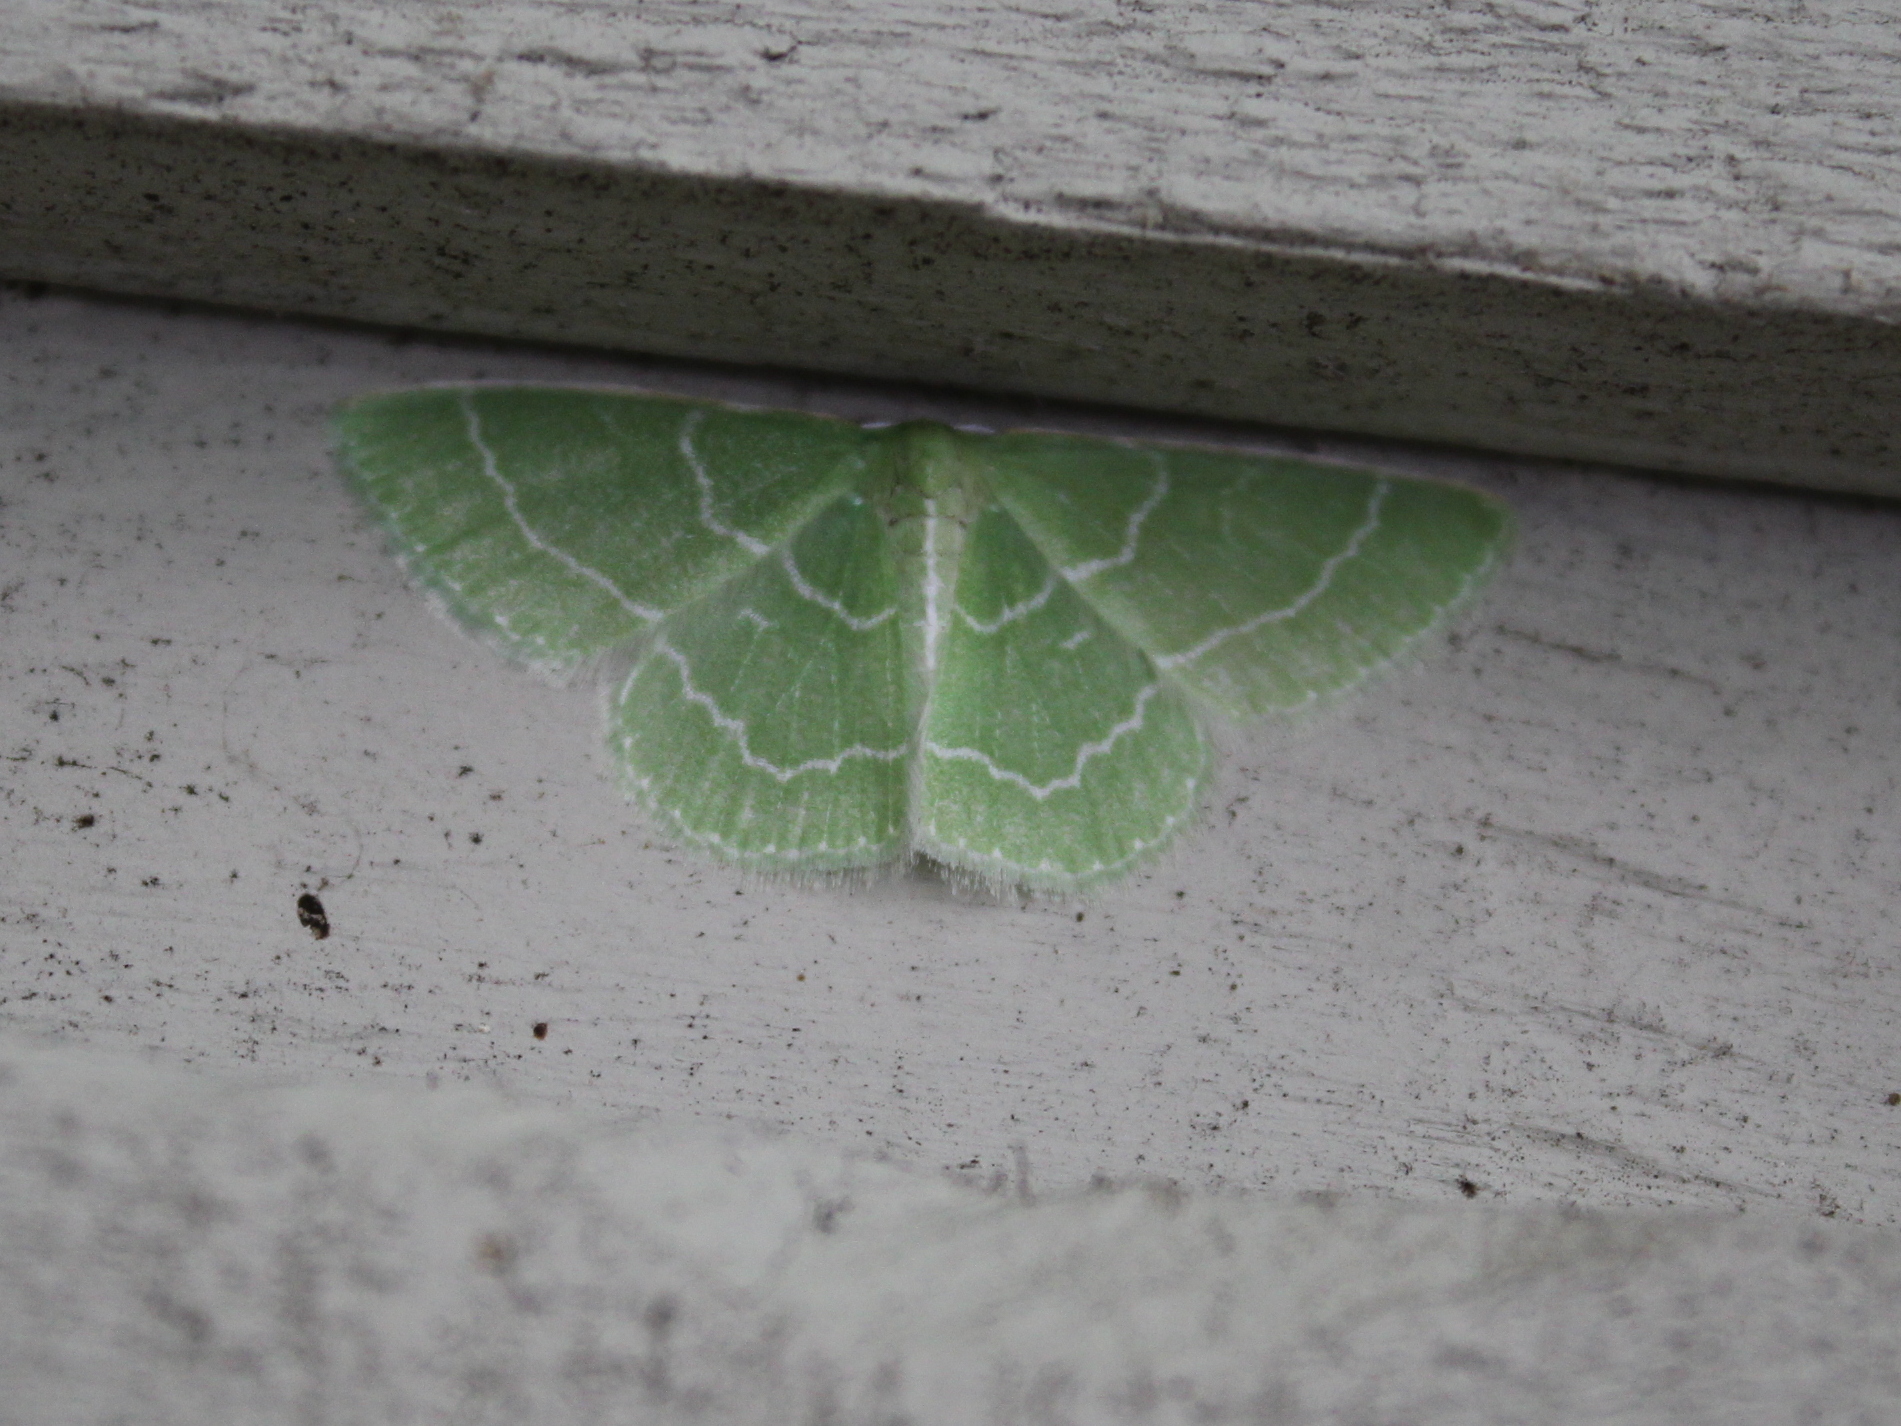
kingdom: Animalia
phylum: Arthropoda
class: Insecta
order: Lepidoptera
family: Geometridae
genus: Synchlora
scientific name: Synchlora aerata
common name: Wavy-lined emerald
